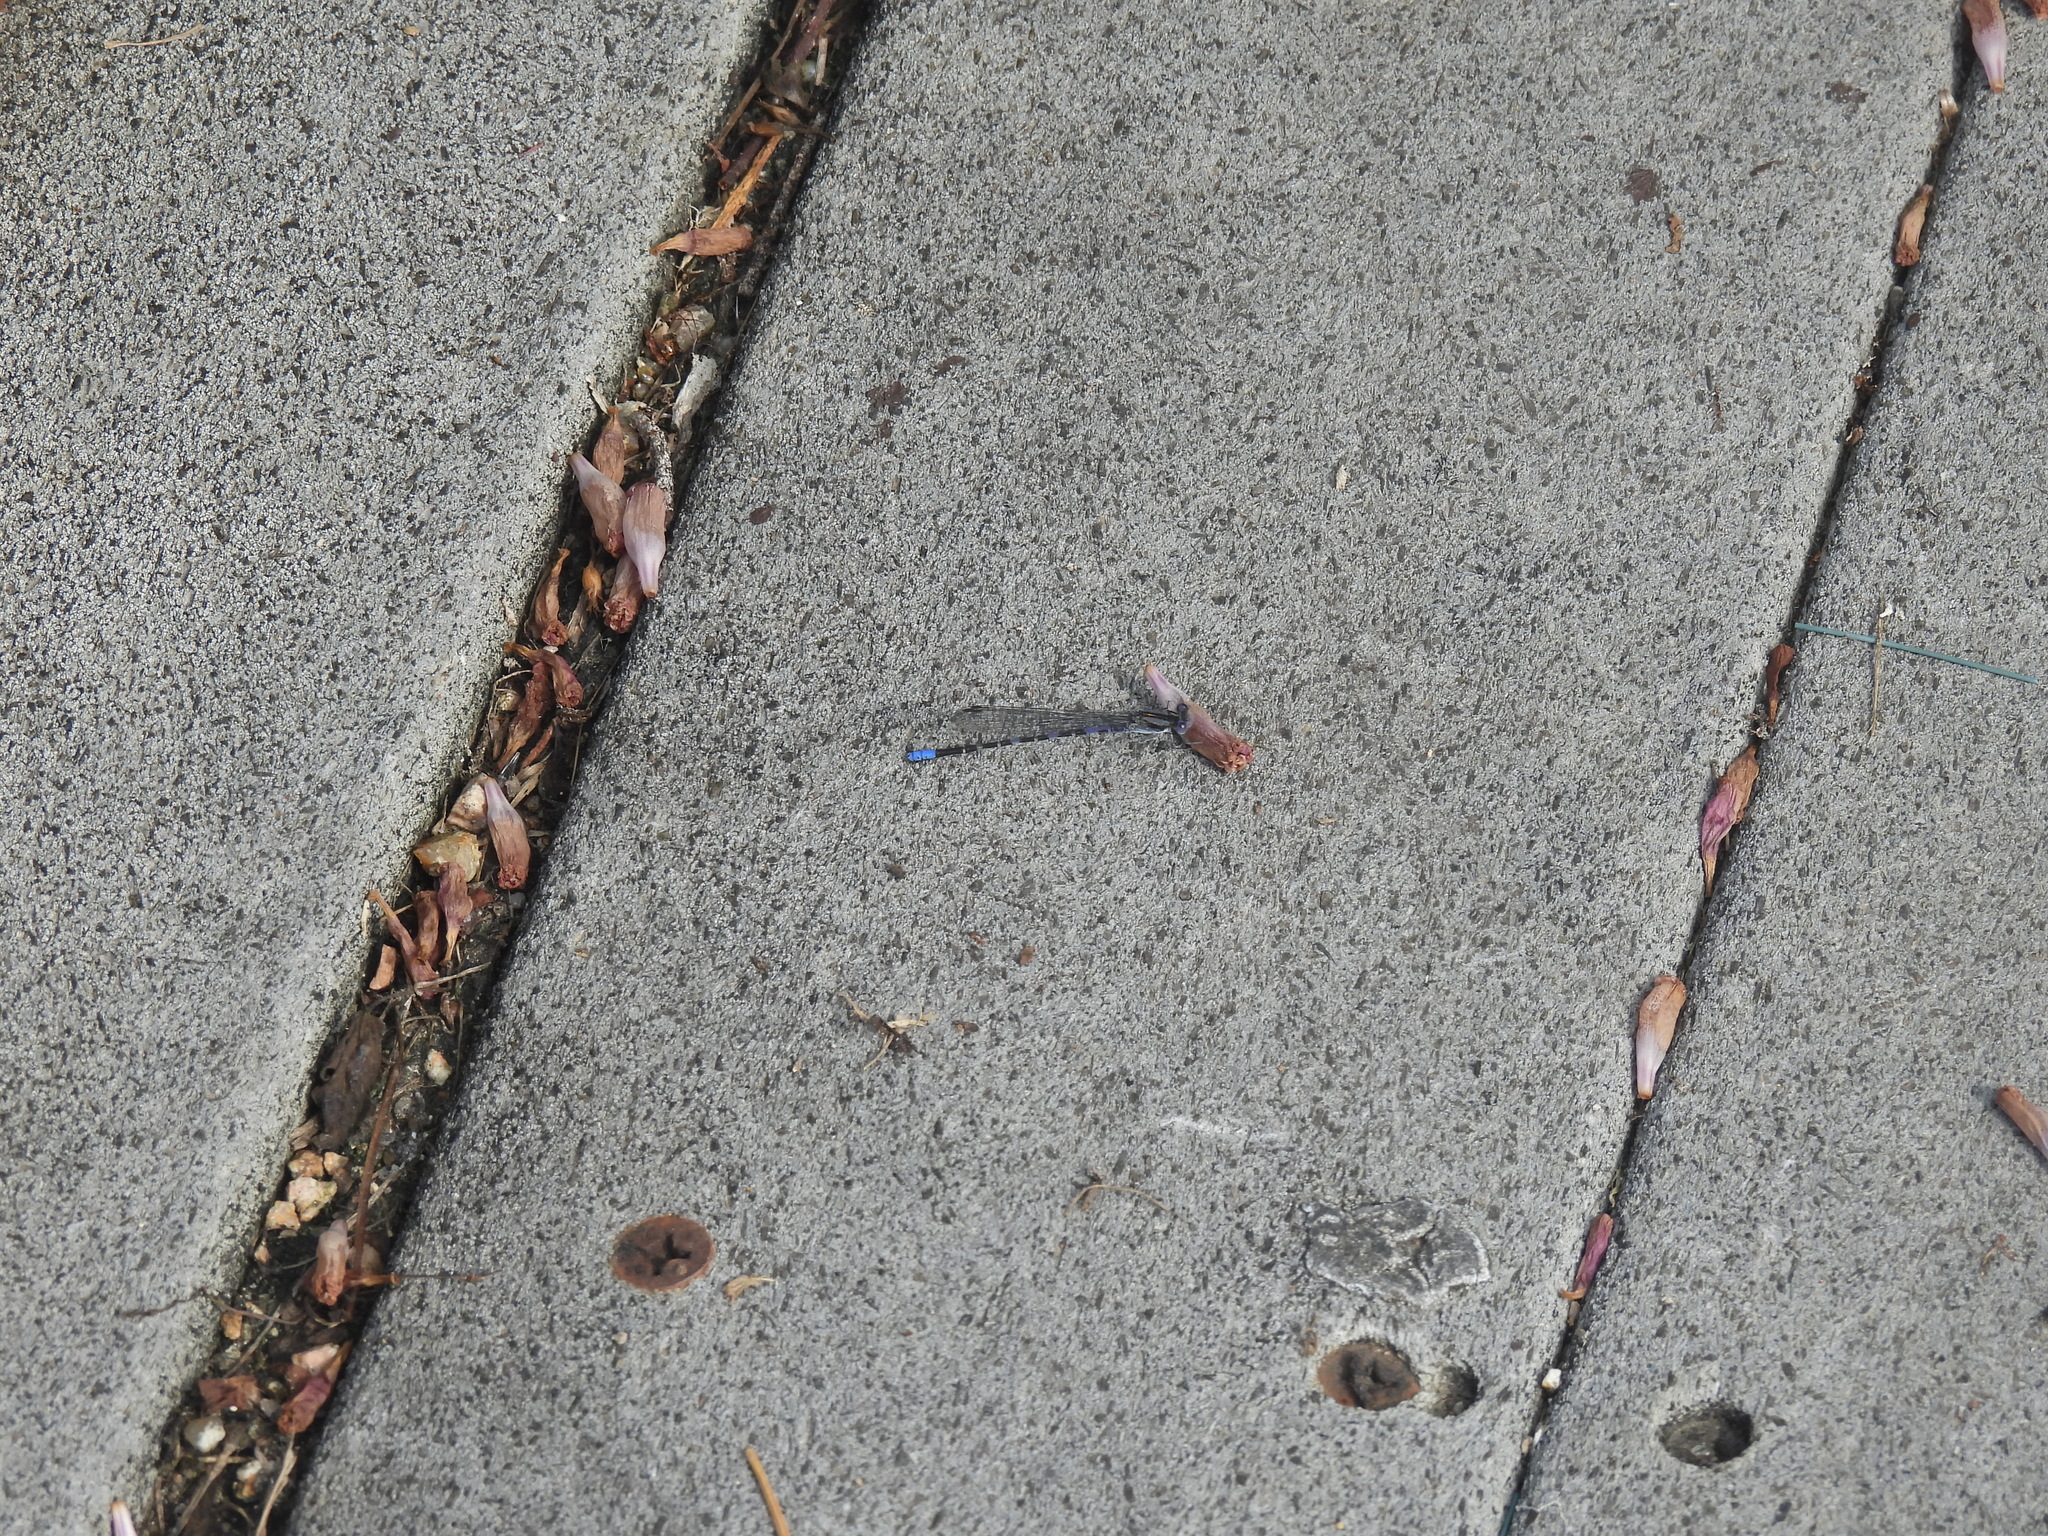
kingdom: Animalia
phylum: Arthropoda
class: Insecta
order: Odonata
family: Coenagrionidae
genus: Argia
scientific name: Argia immunda
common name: Kiowa dancer
